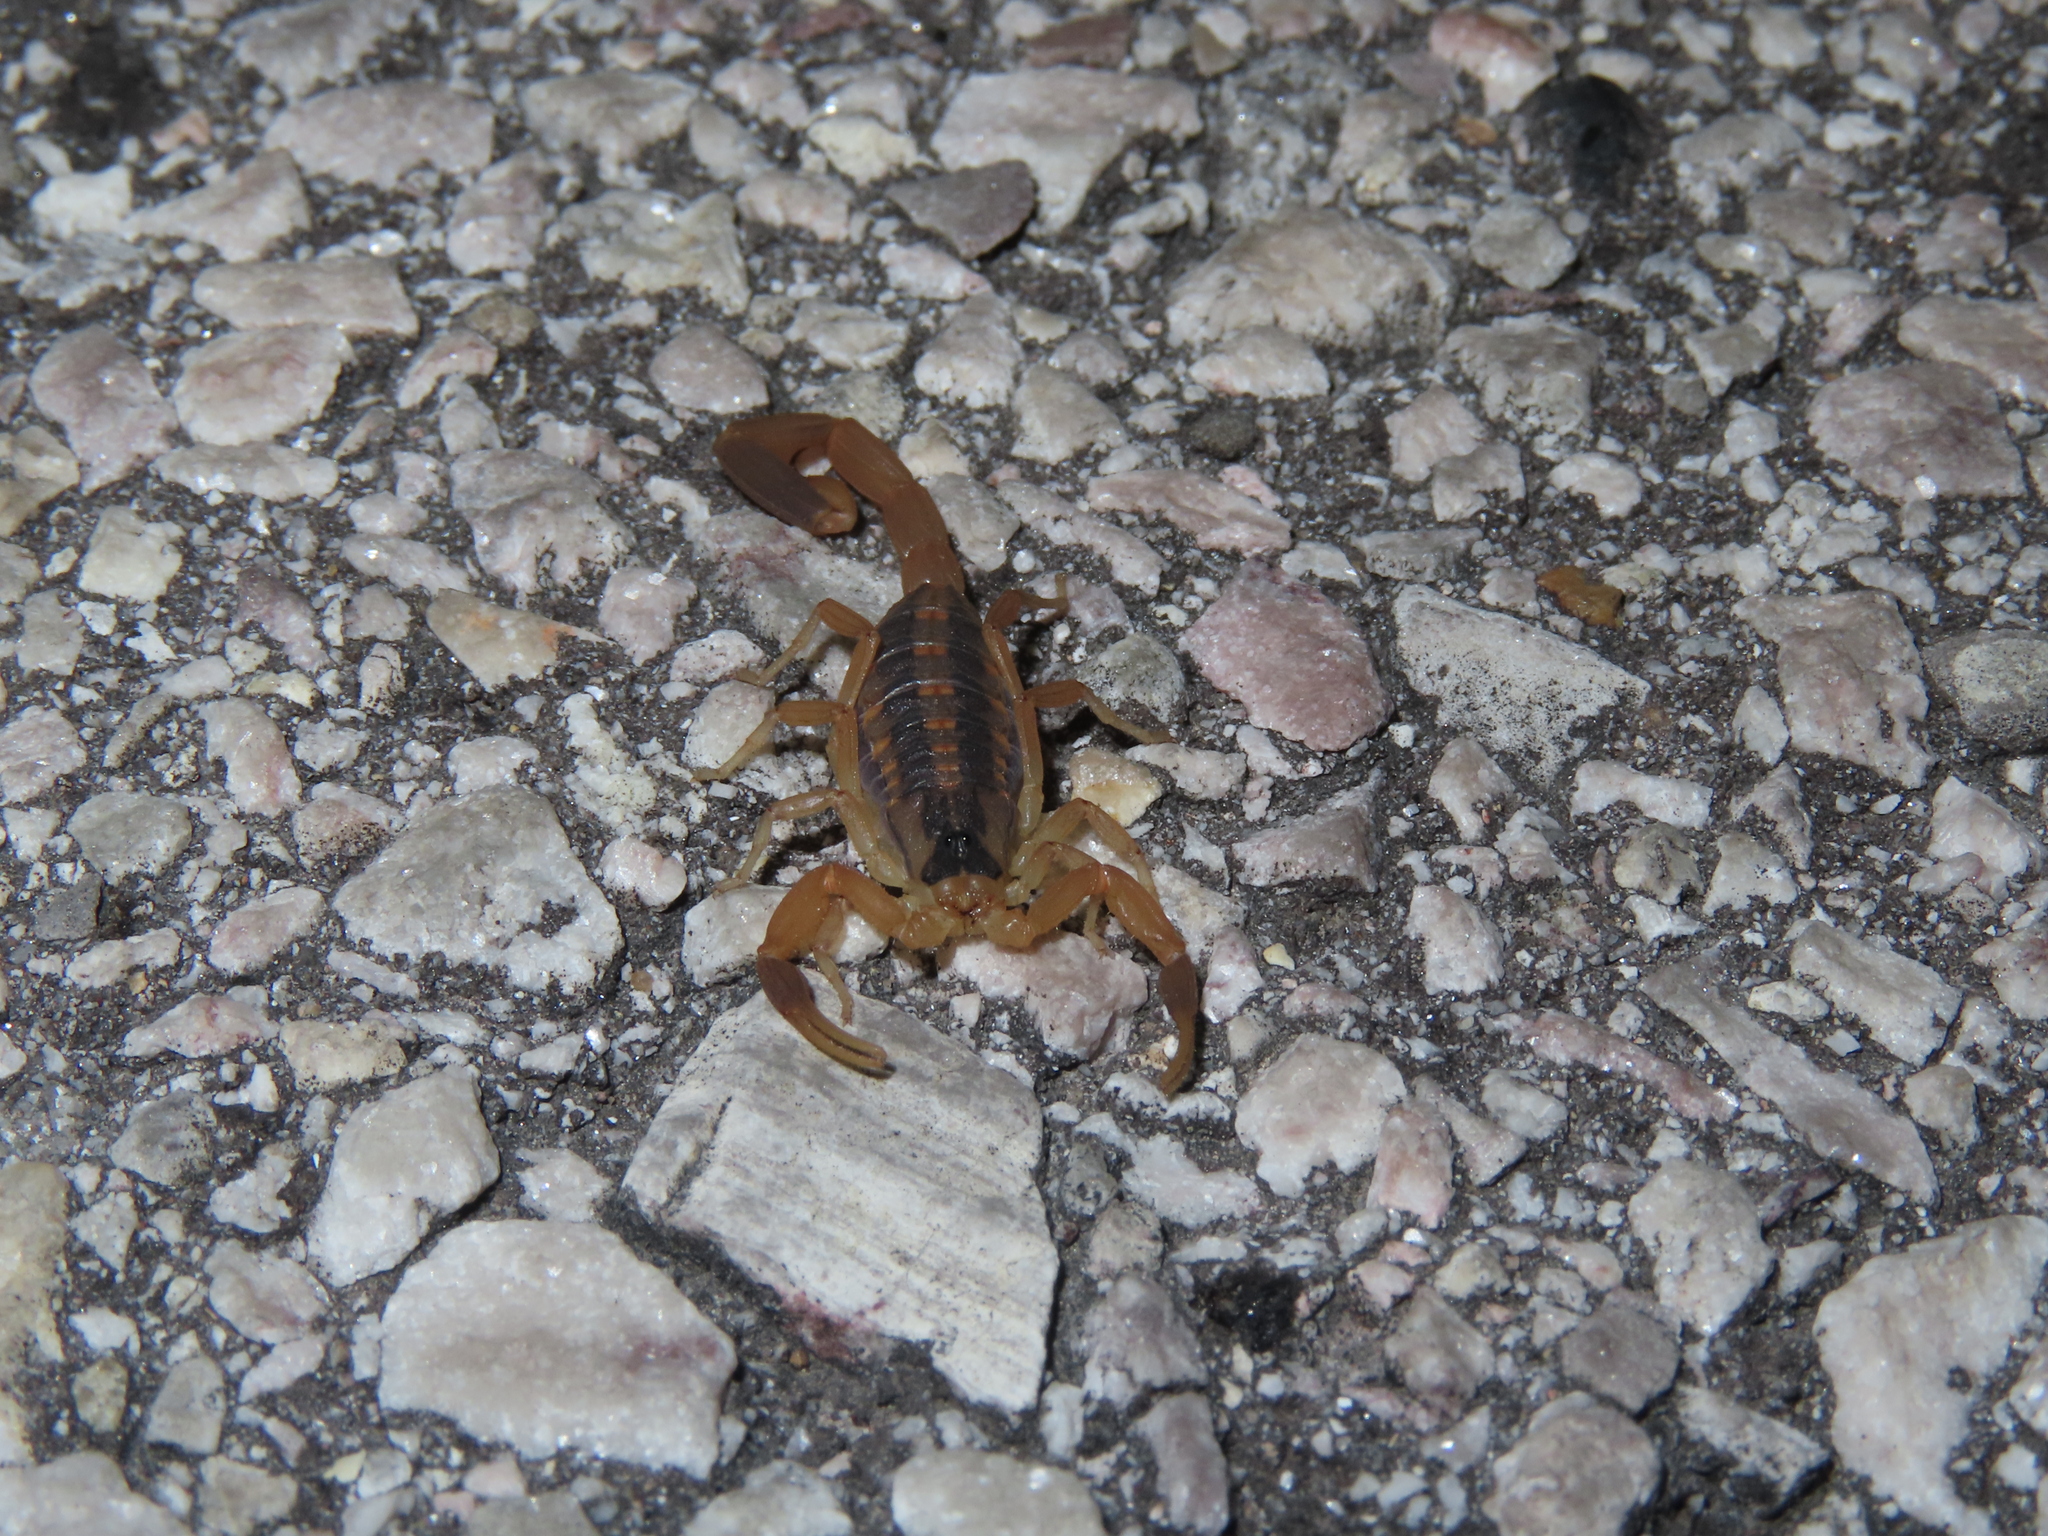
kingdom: Animalia
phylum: Arthropoda
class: Arachnida
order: Scorpiones
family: Buthidae
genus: Centruroides
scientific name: Centruroides vittatus
